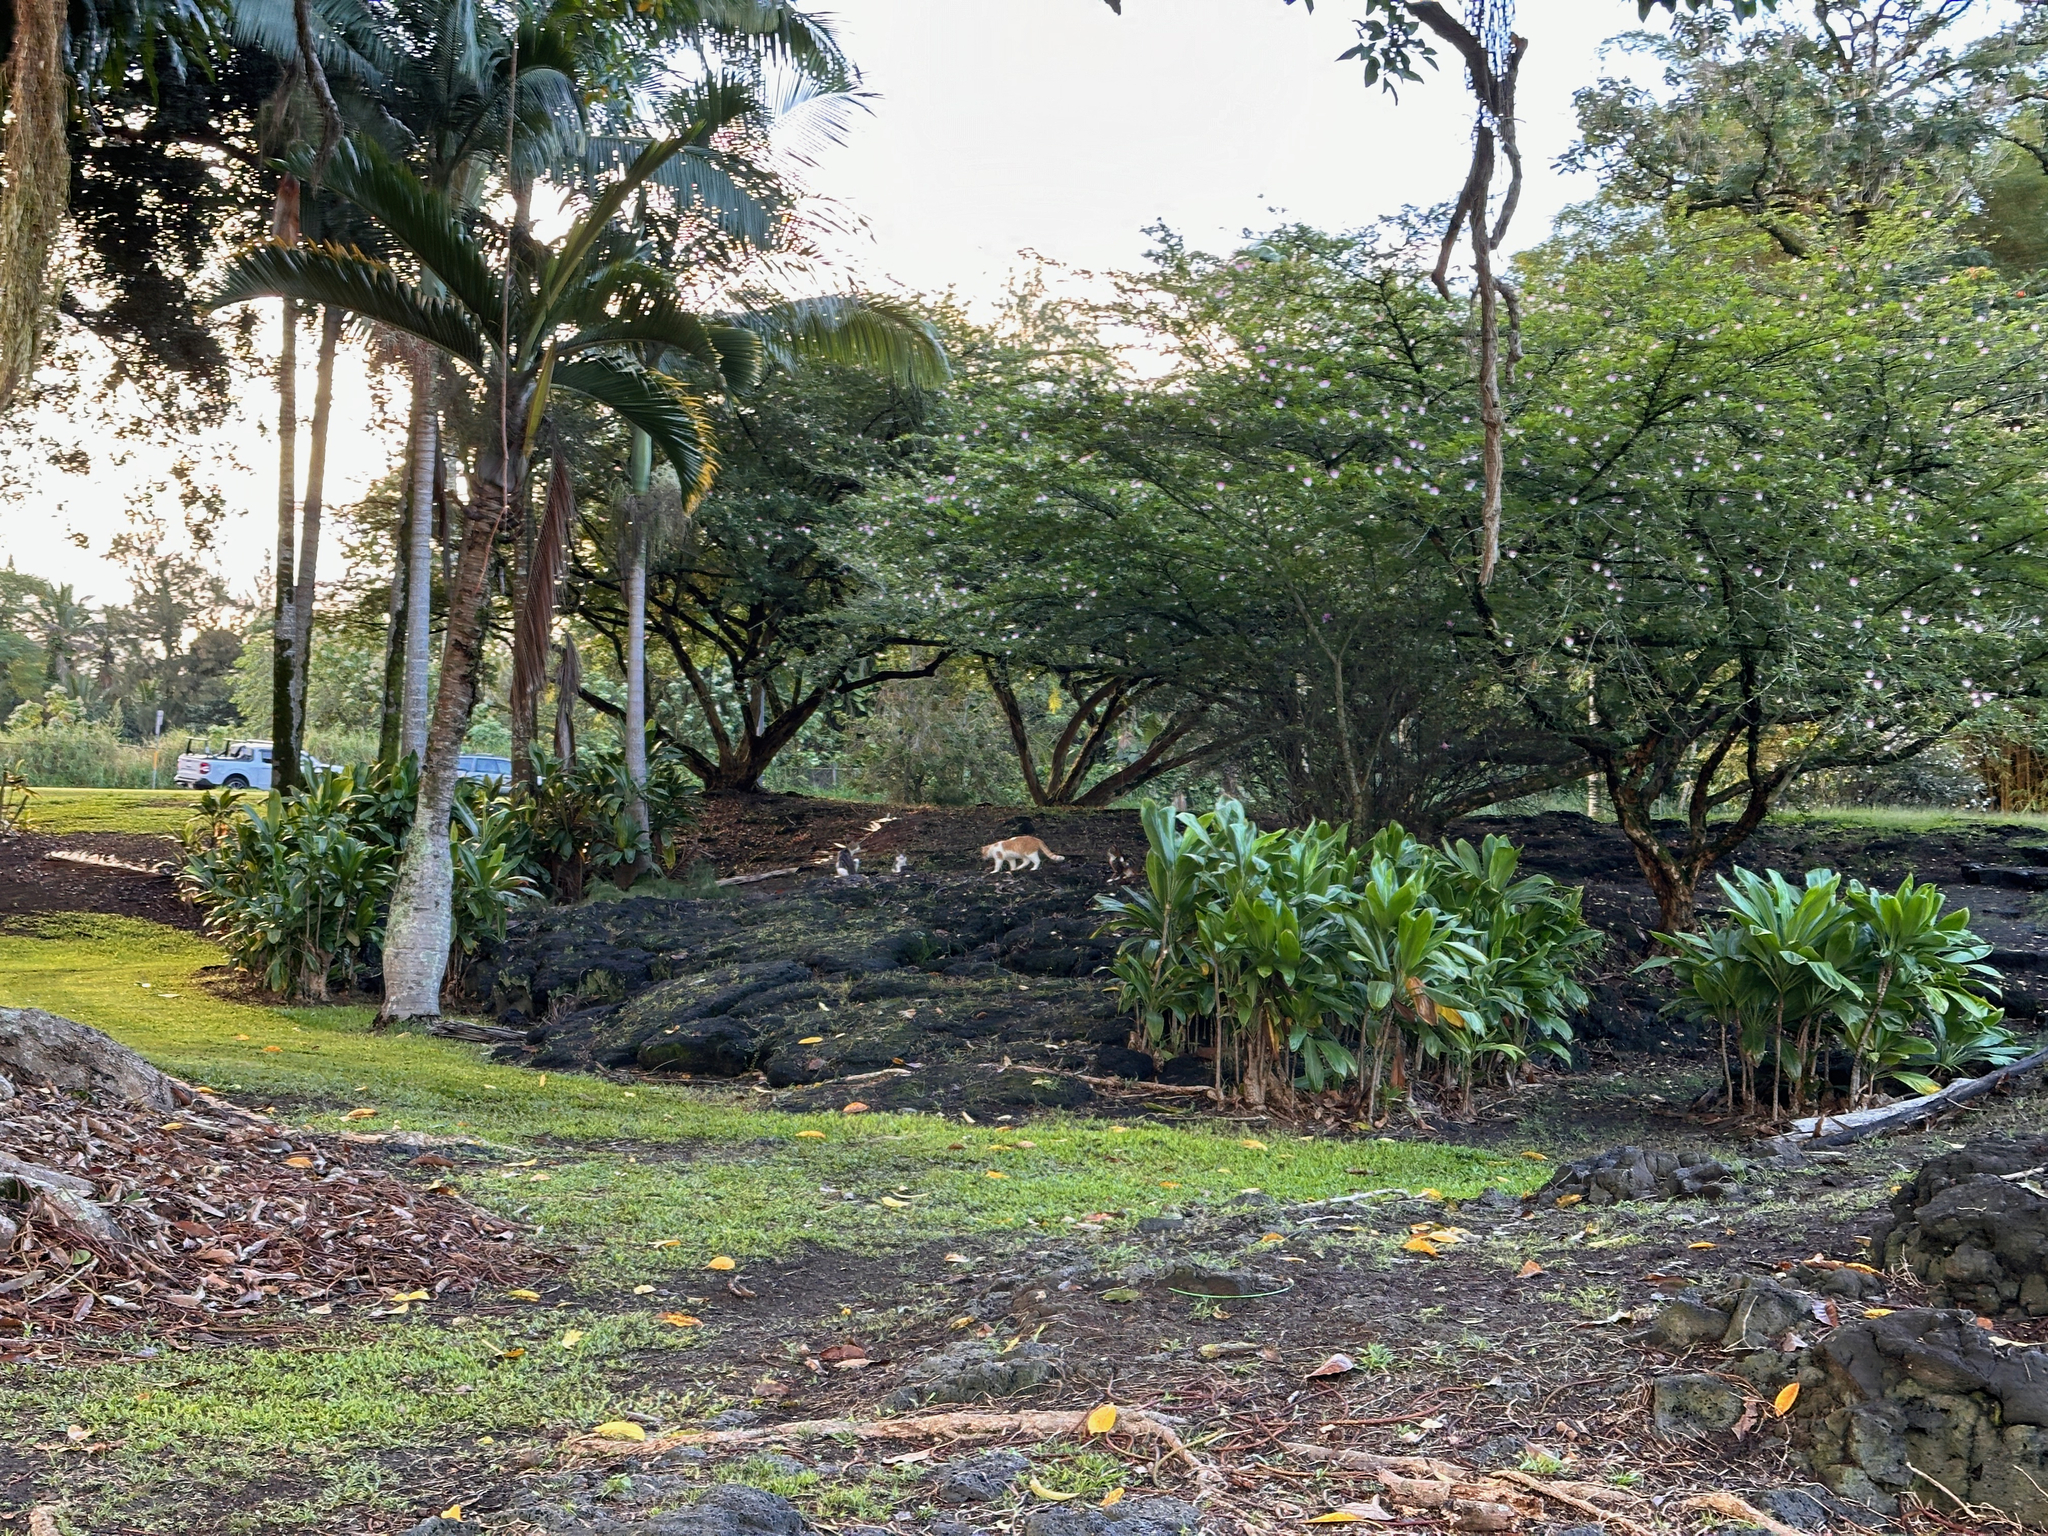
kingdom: Animalia
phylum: Chordata
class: Mammalia
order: Carnivora
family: Felidae
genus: Felis
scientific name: Felis catus
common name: Domestic cat
